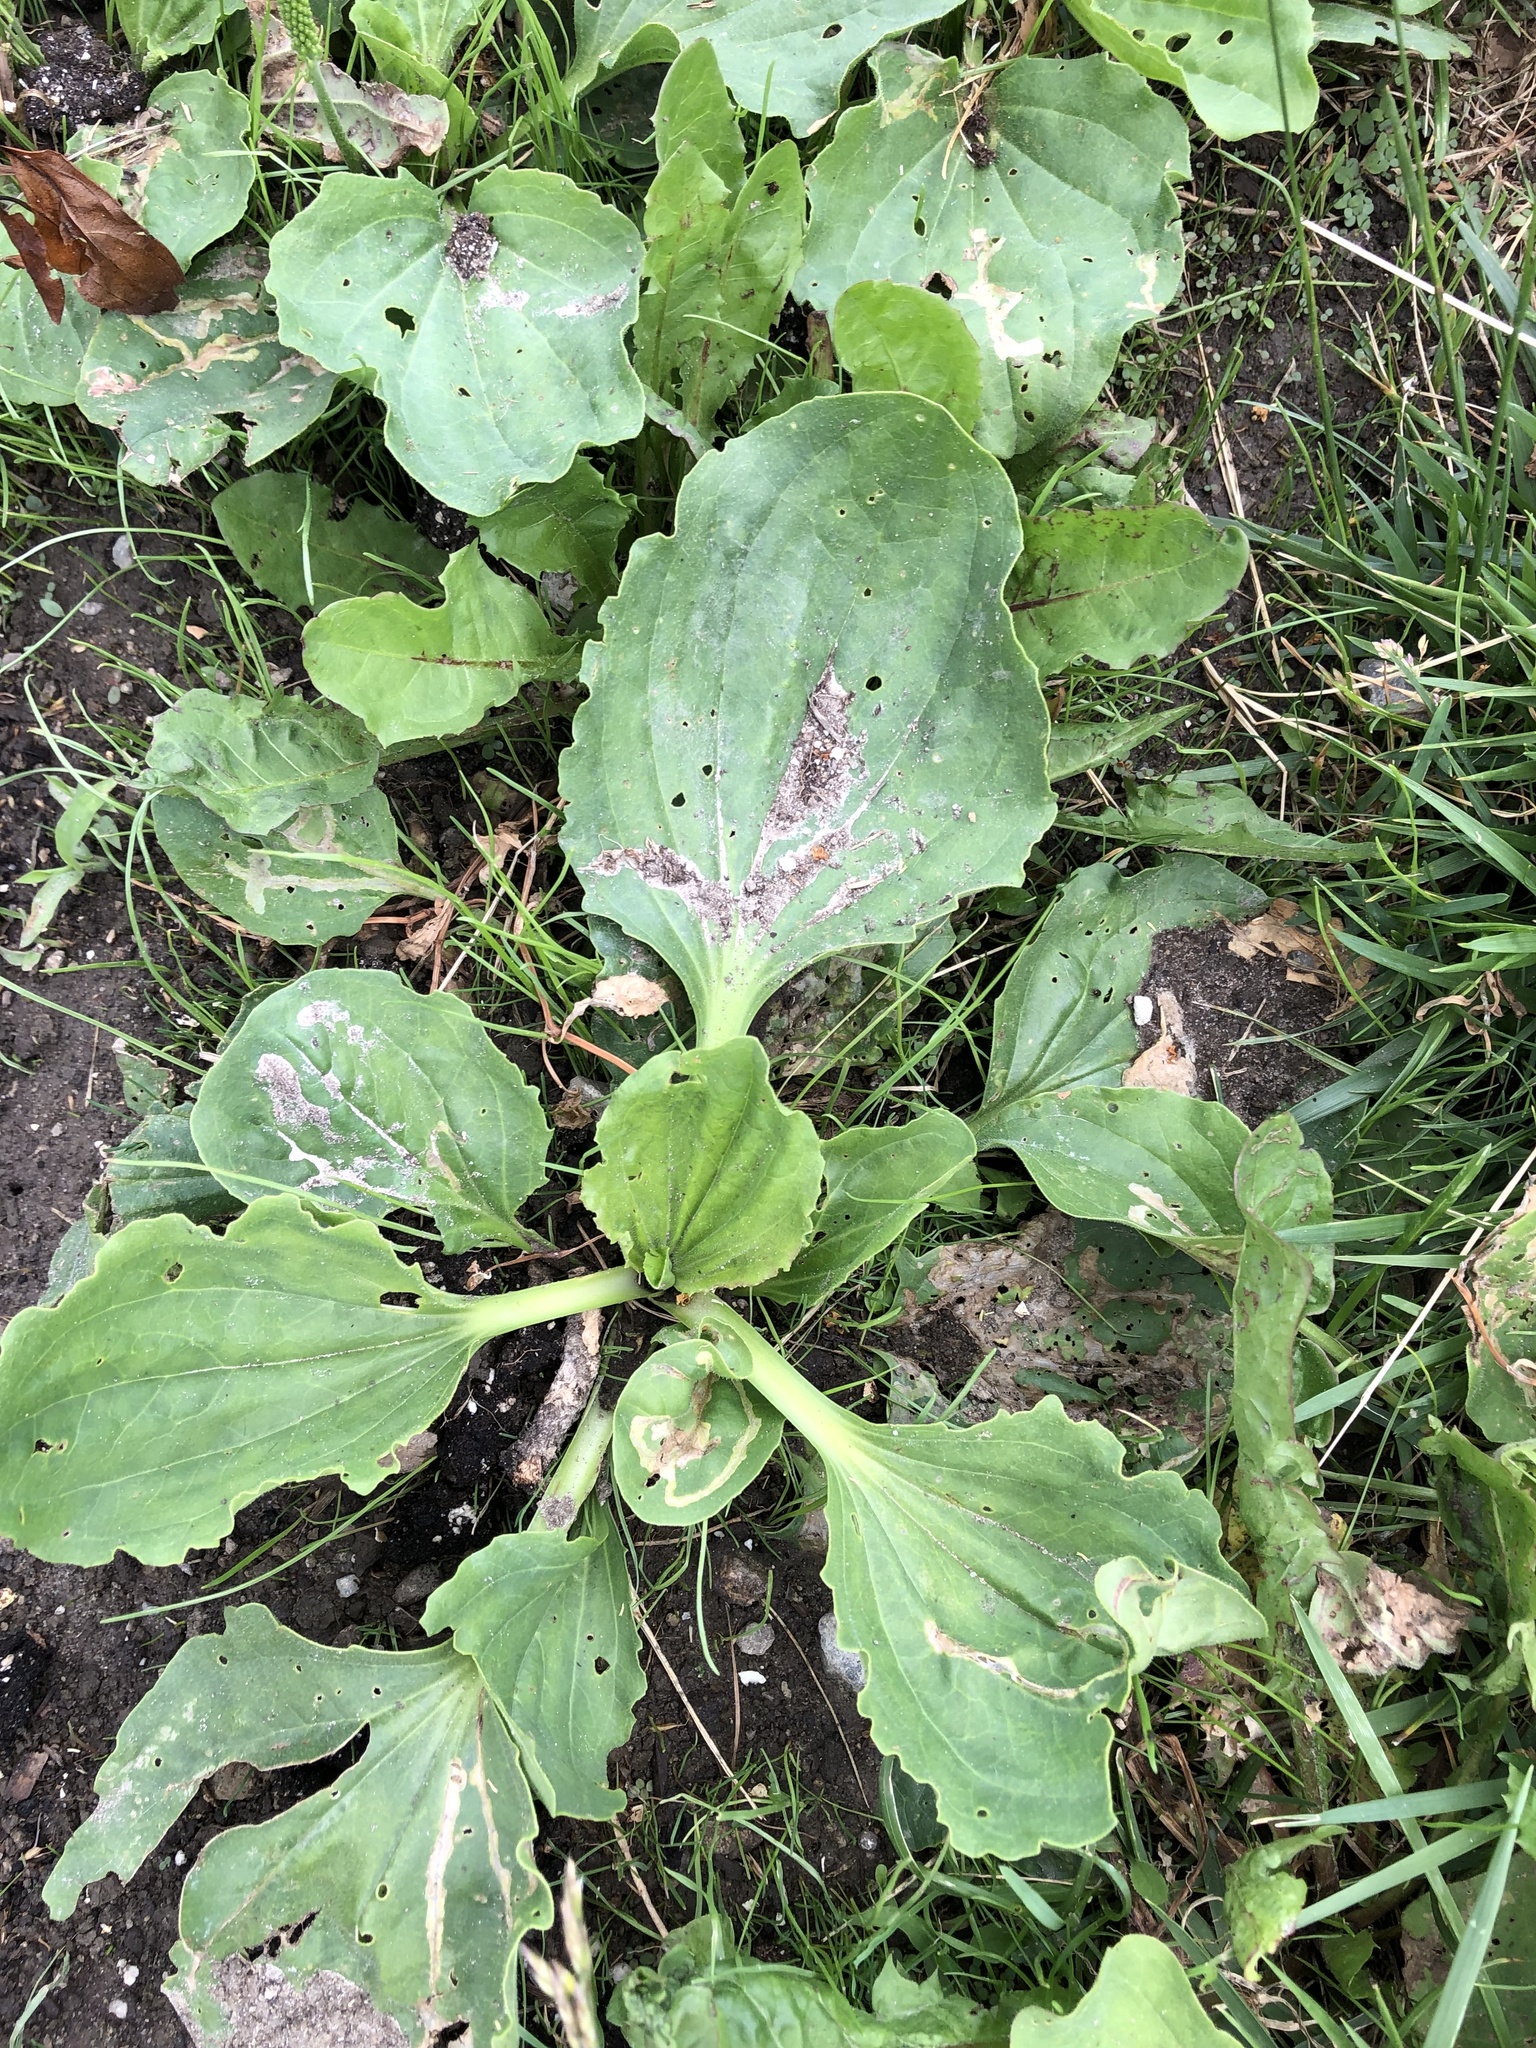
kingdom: Plantae
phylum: Tracheophyta
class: Magnoliopsida
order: Lamiales
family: Plantaginaceae
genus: Plantago
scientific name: Plantago major
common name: Common plantain
